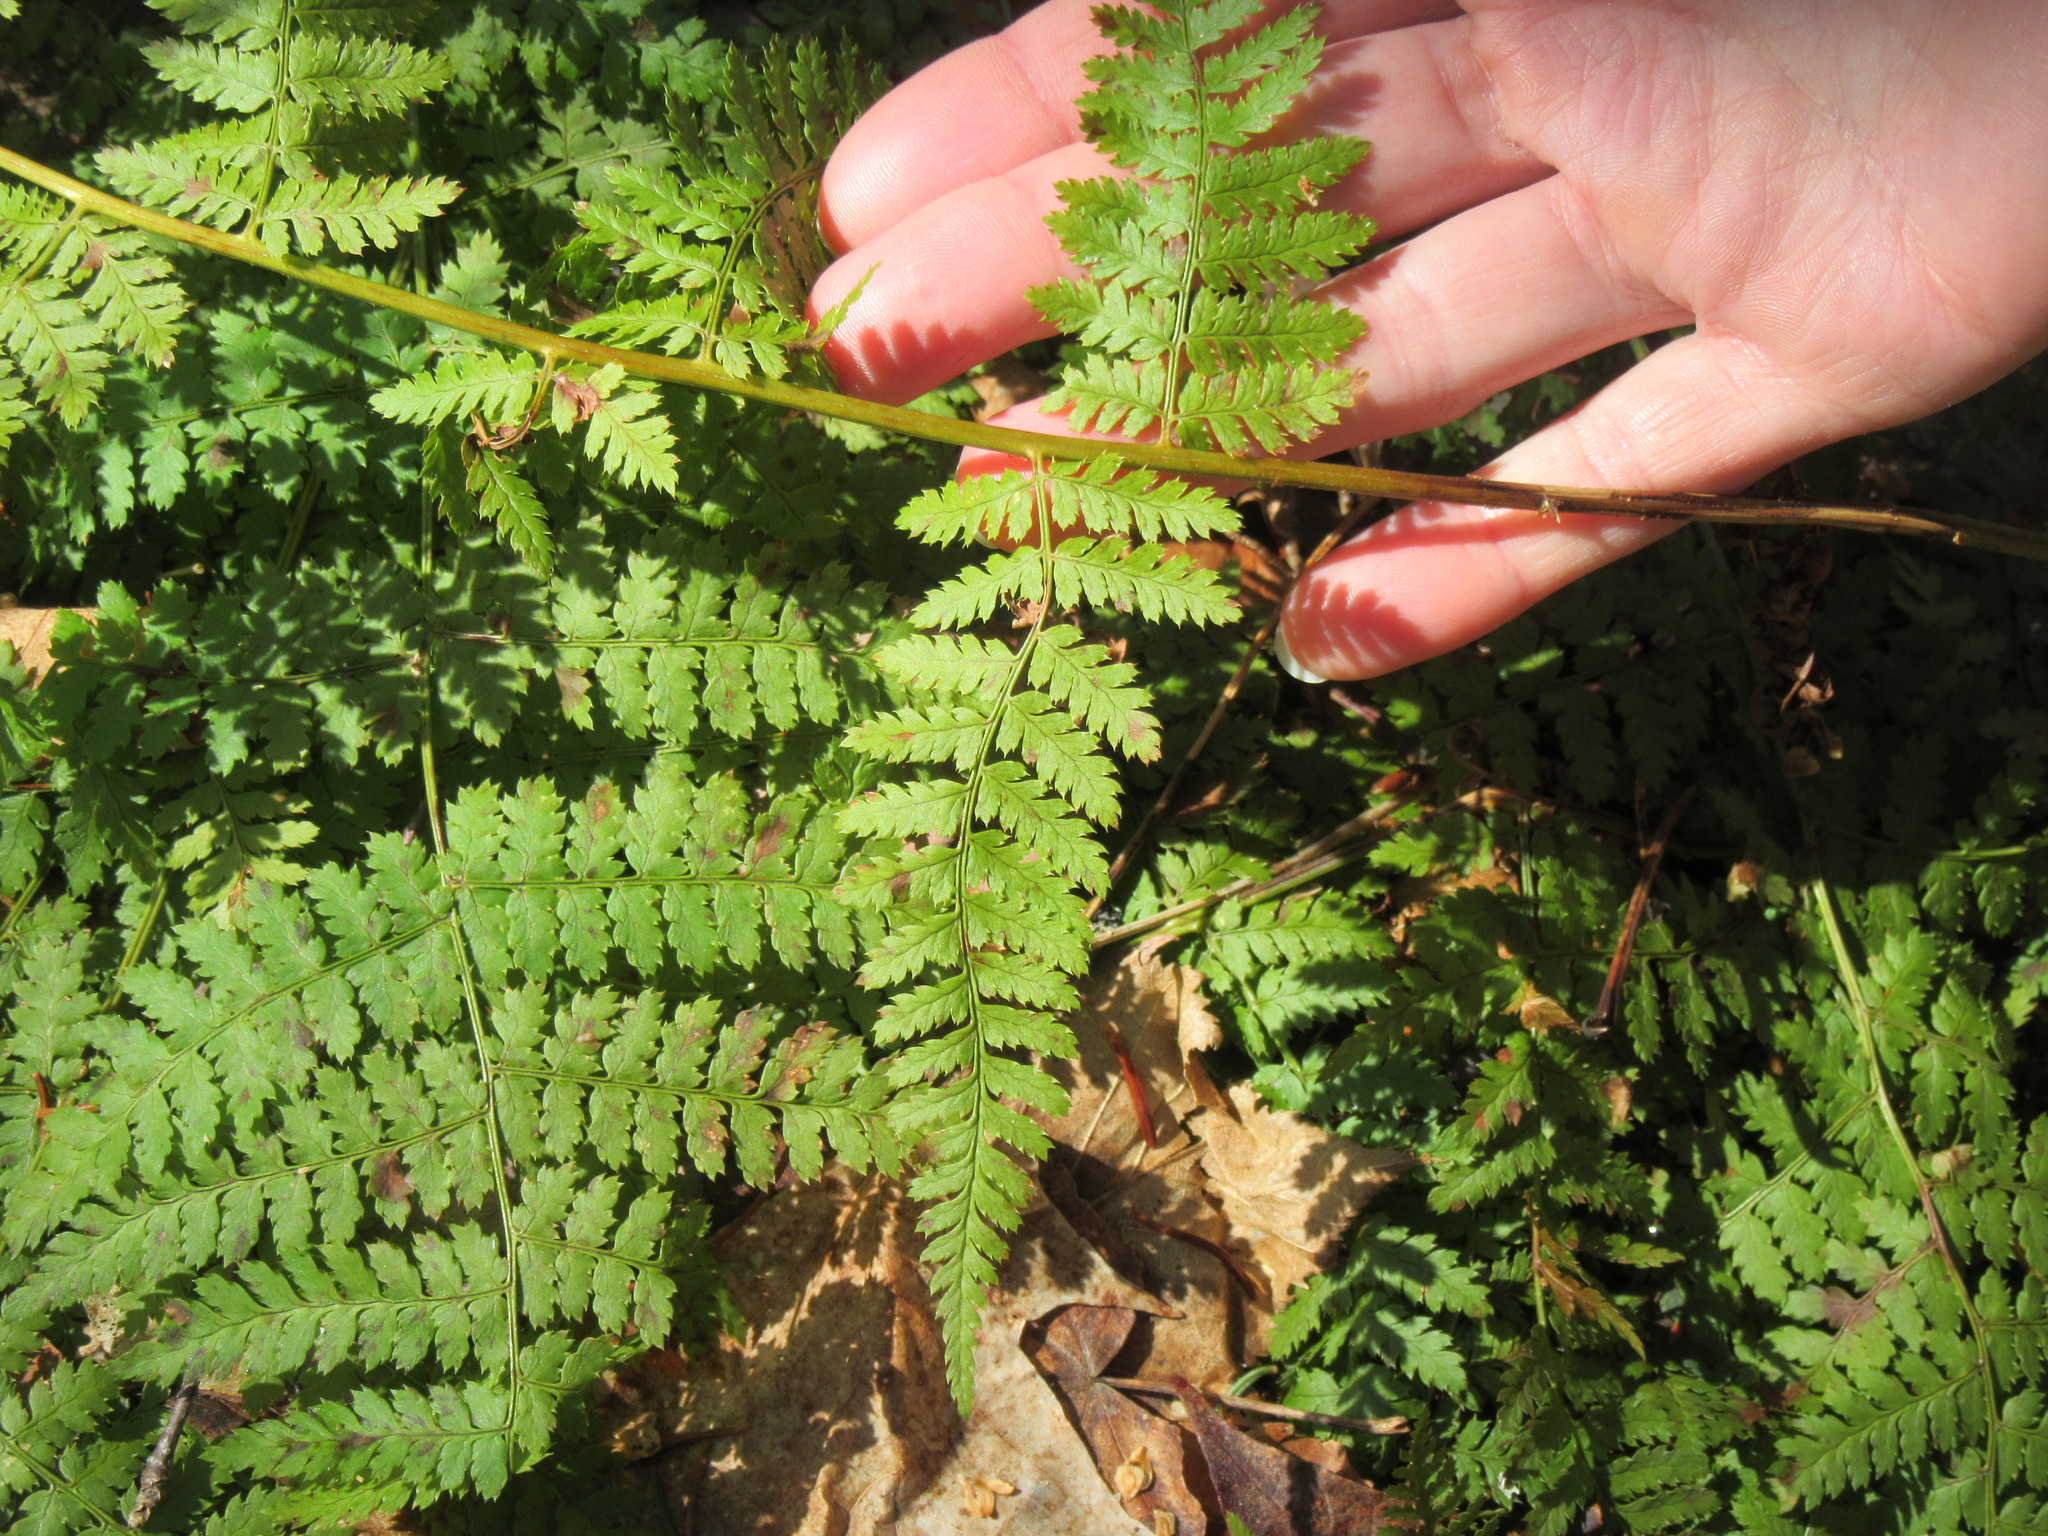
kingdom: Plantae
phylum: Tracheophyta
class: Polypodiopsida
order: Polypodiales
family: Dryopteridaceae
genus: Dryopteris
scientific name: Dryopteris intermedia
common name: Evergreen wood fern
